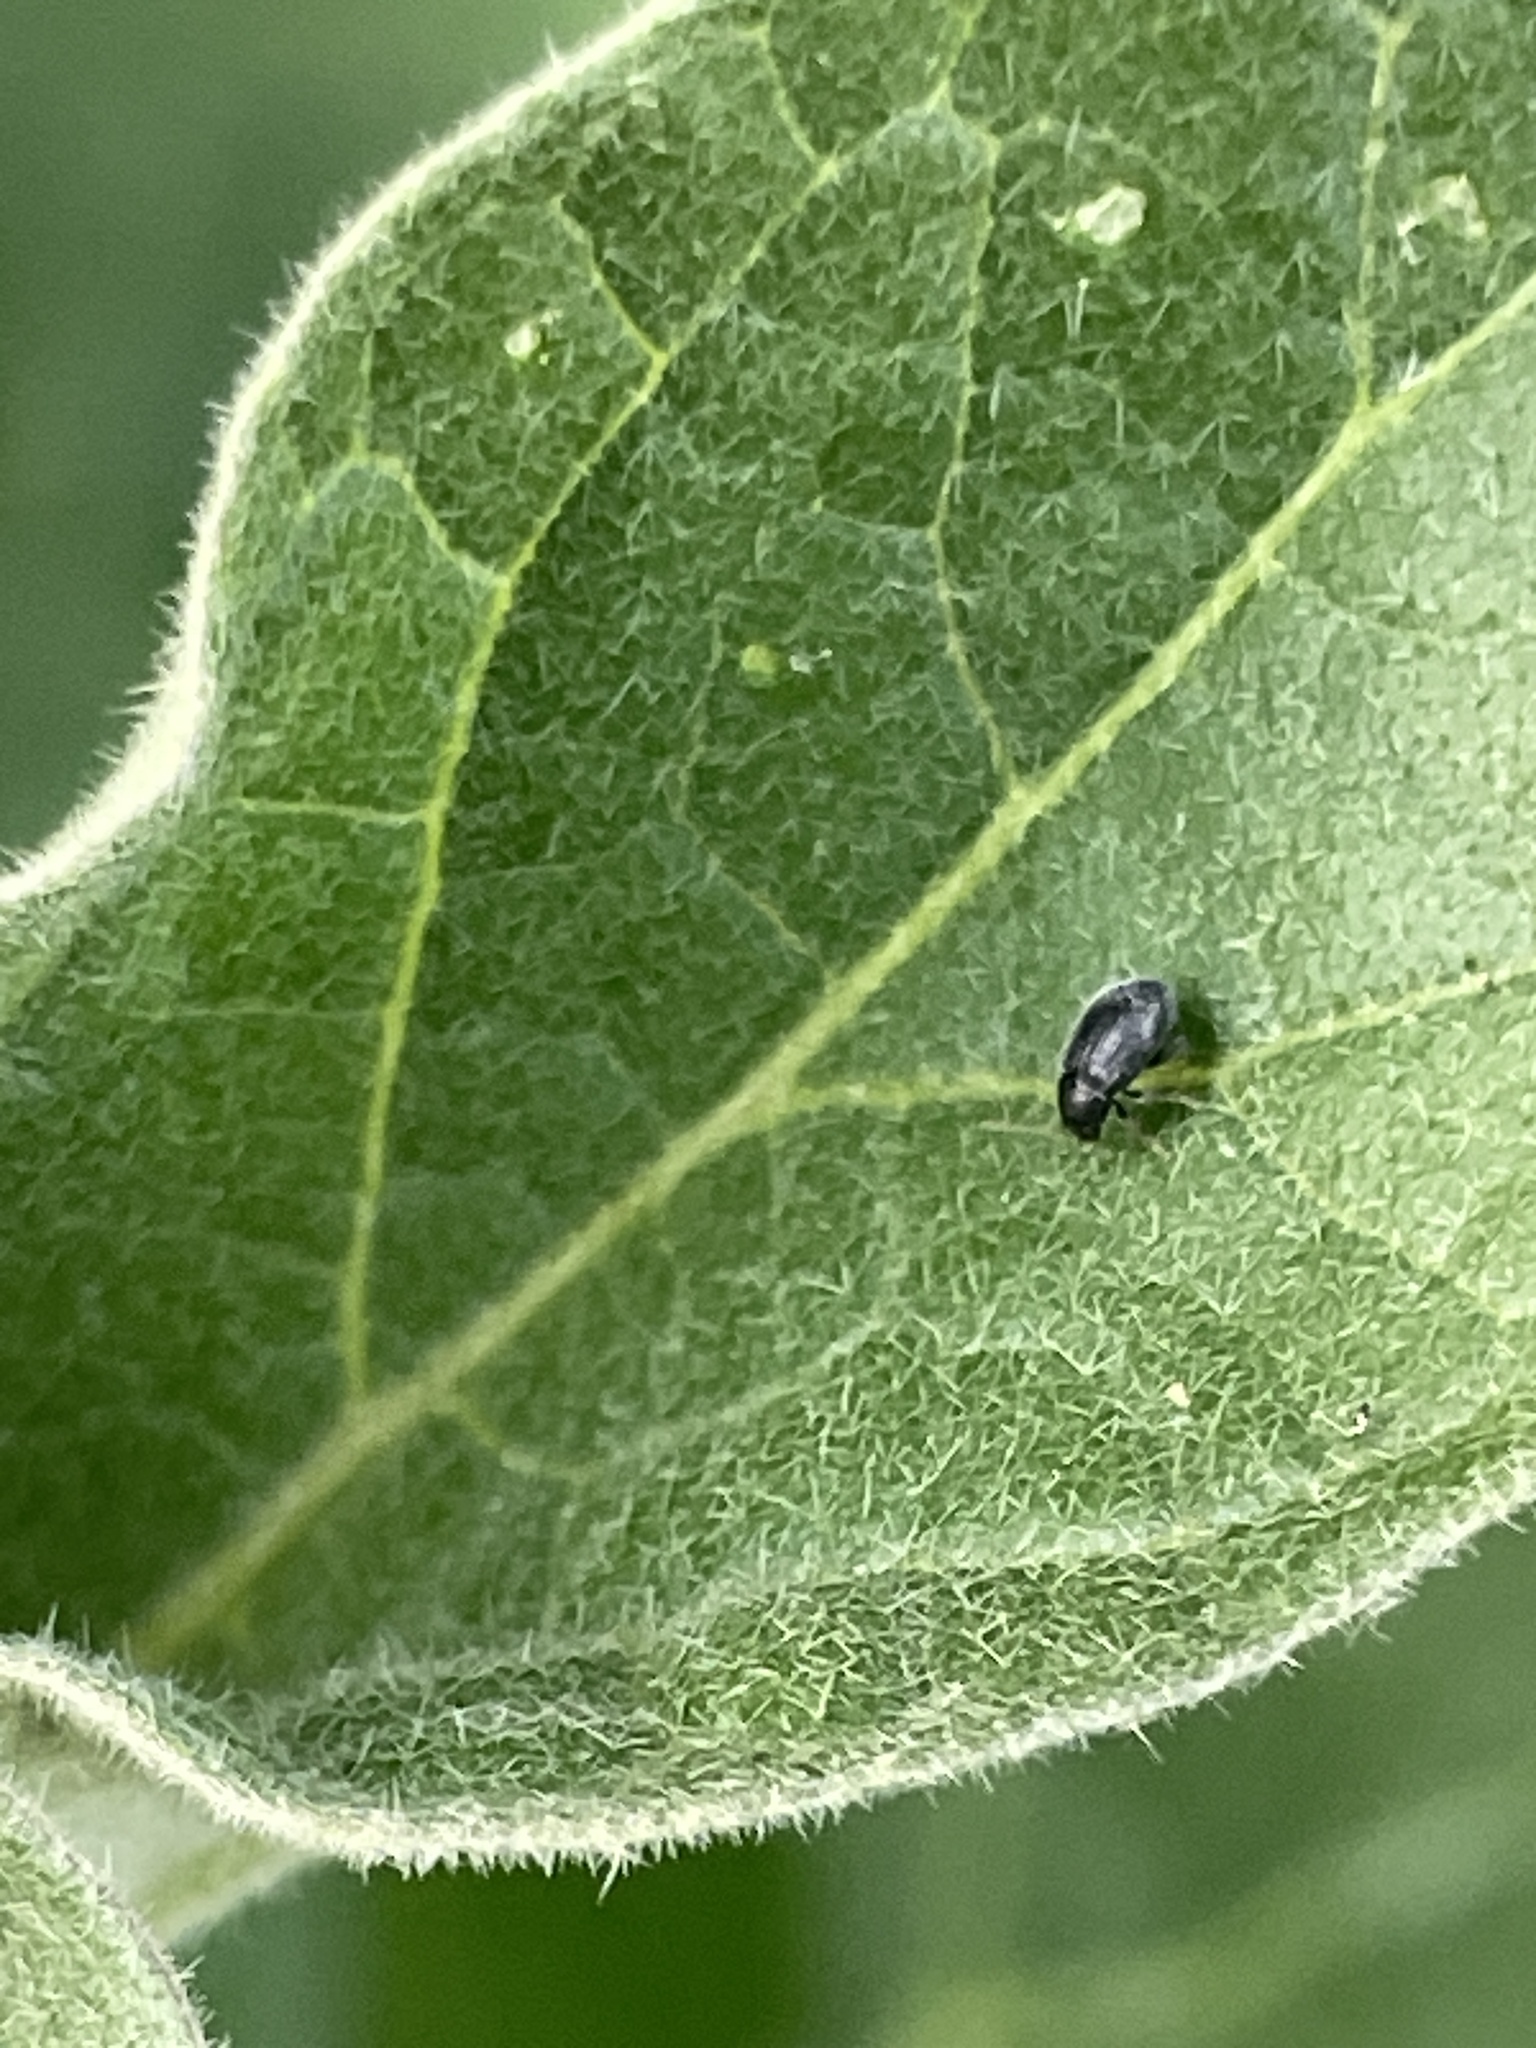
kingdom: Animalia
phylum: Arthropoda
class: Insecta
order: Coleoptera
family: Chrysomelidae
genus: Epitrix
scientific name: Epitrix fuscula
